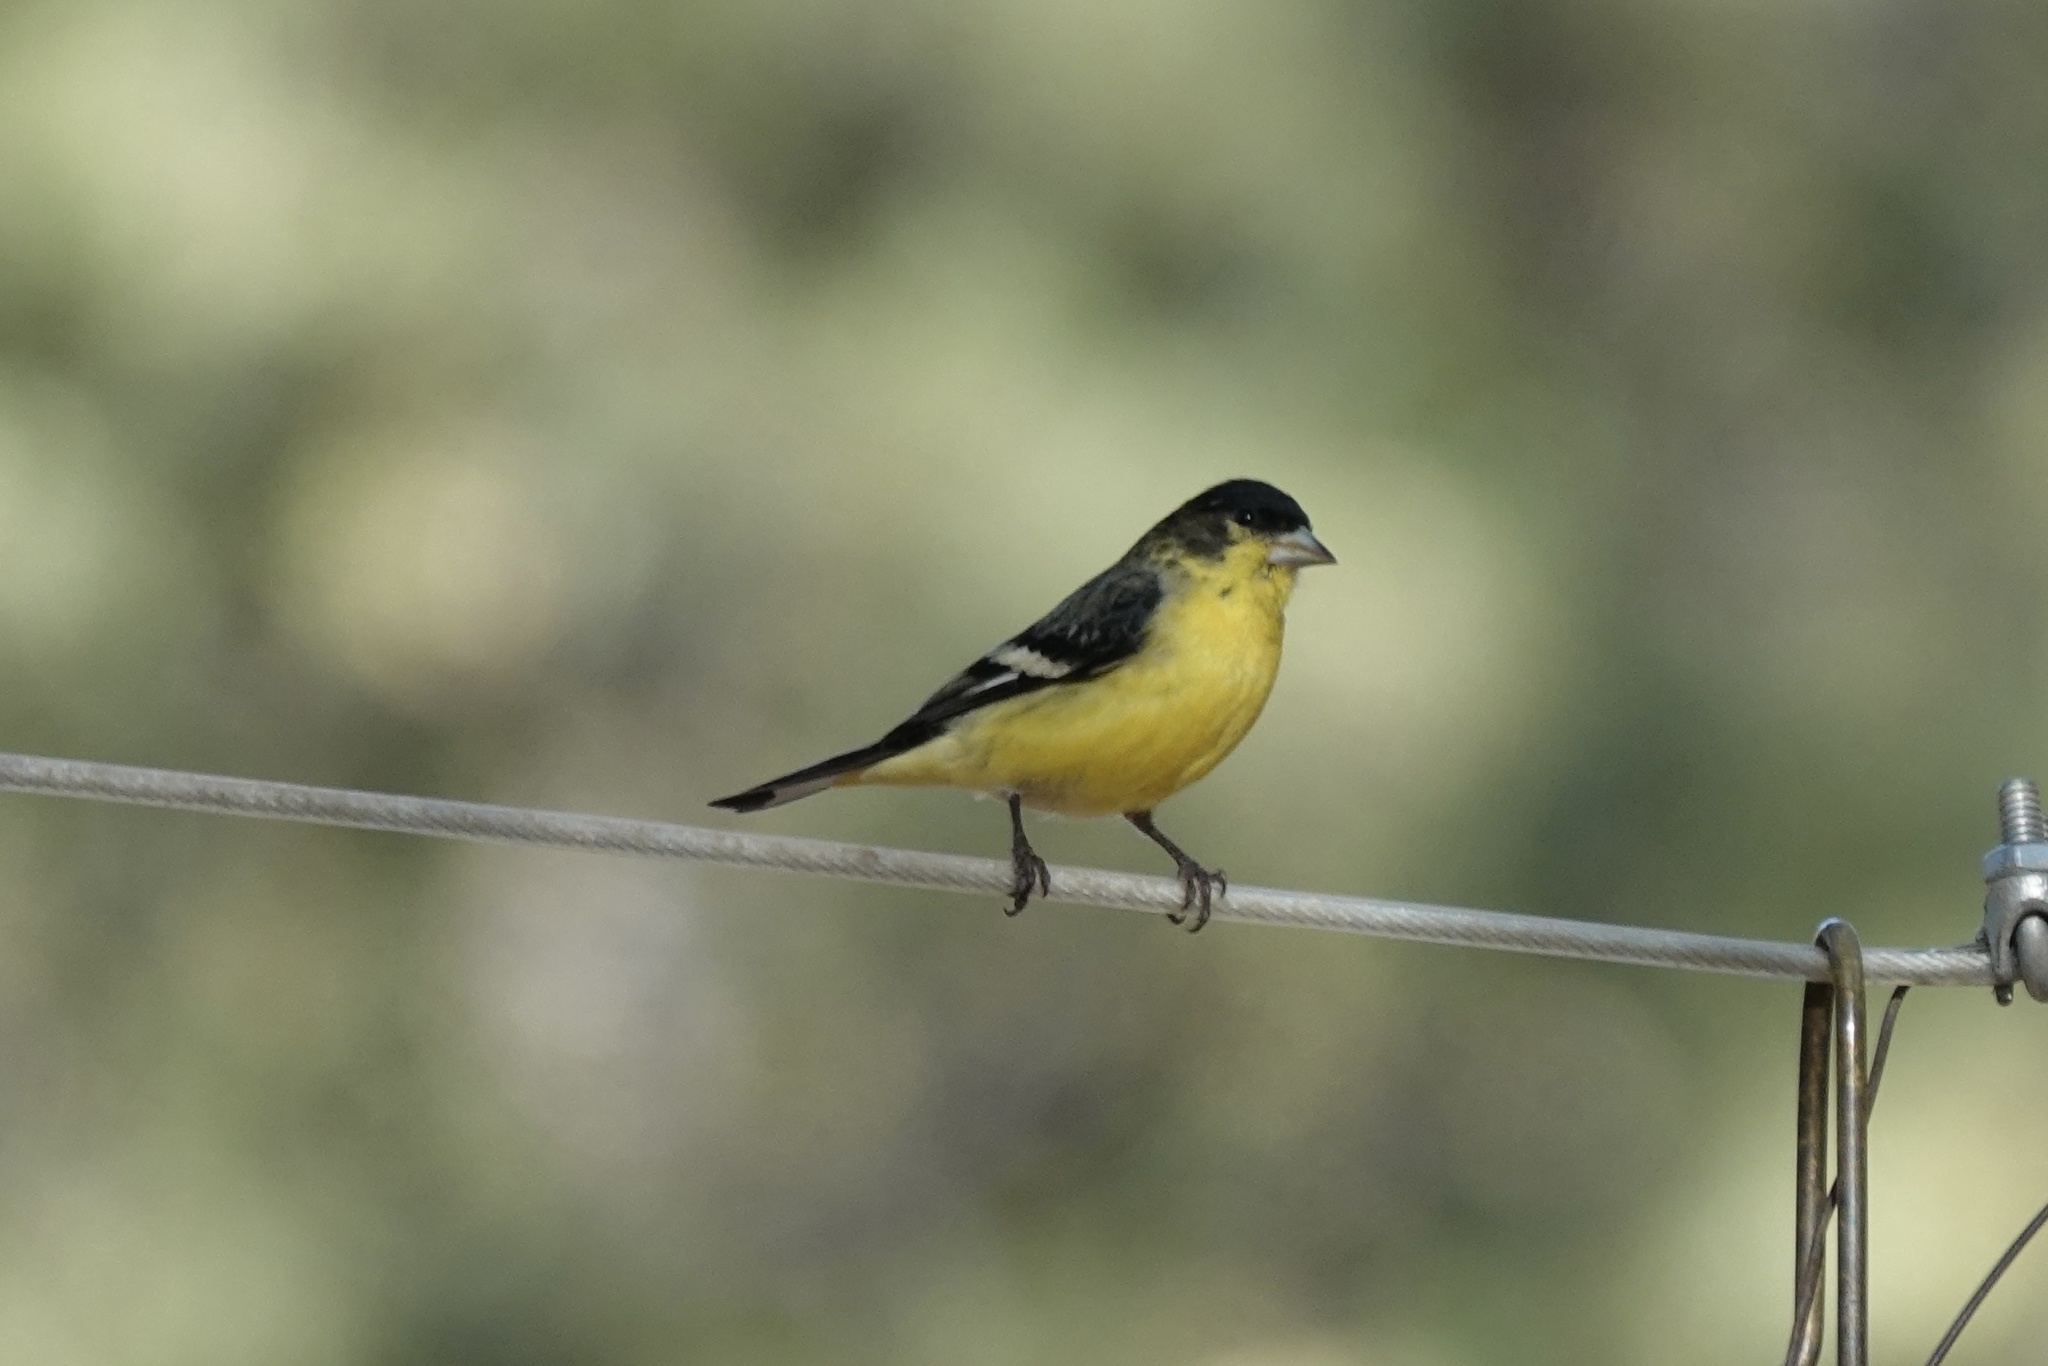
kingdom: Animalia
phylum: Chordata
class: Aves
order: Passeriformes
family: Fringillidae
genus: Spinus
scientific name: Spinus psaltria
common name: Lesser goldfinch
